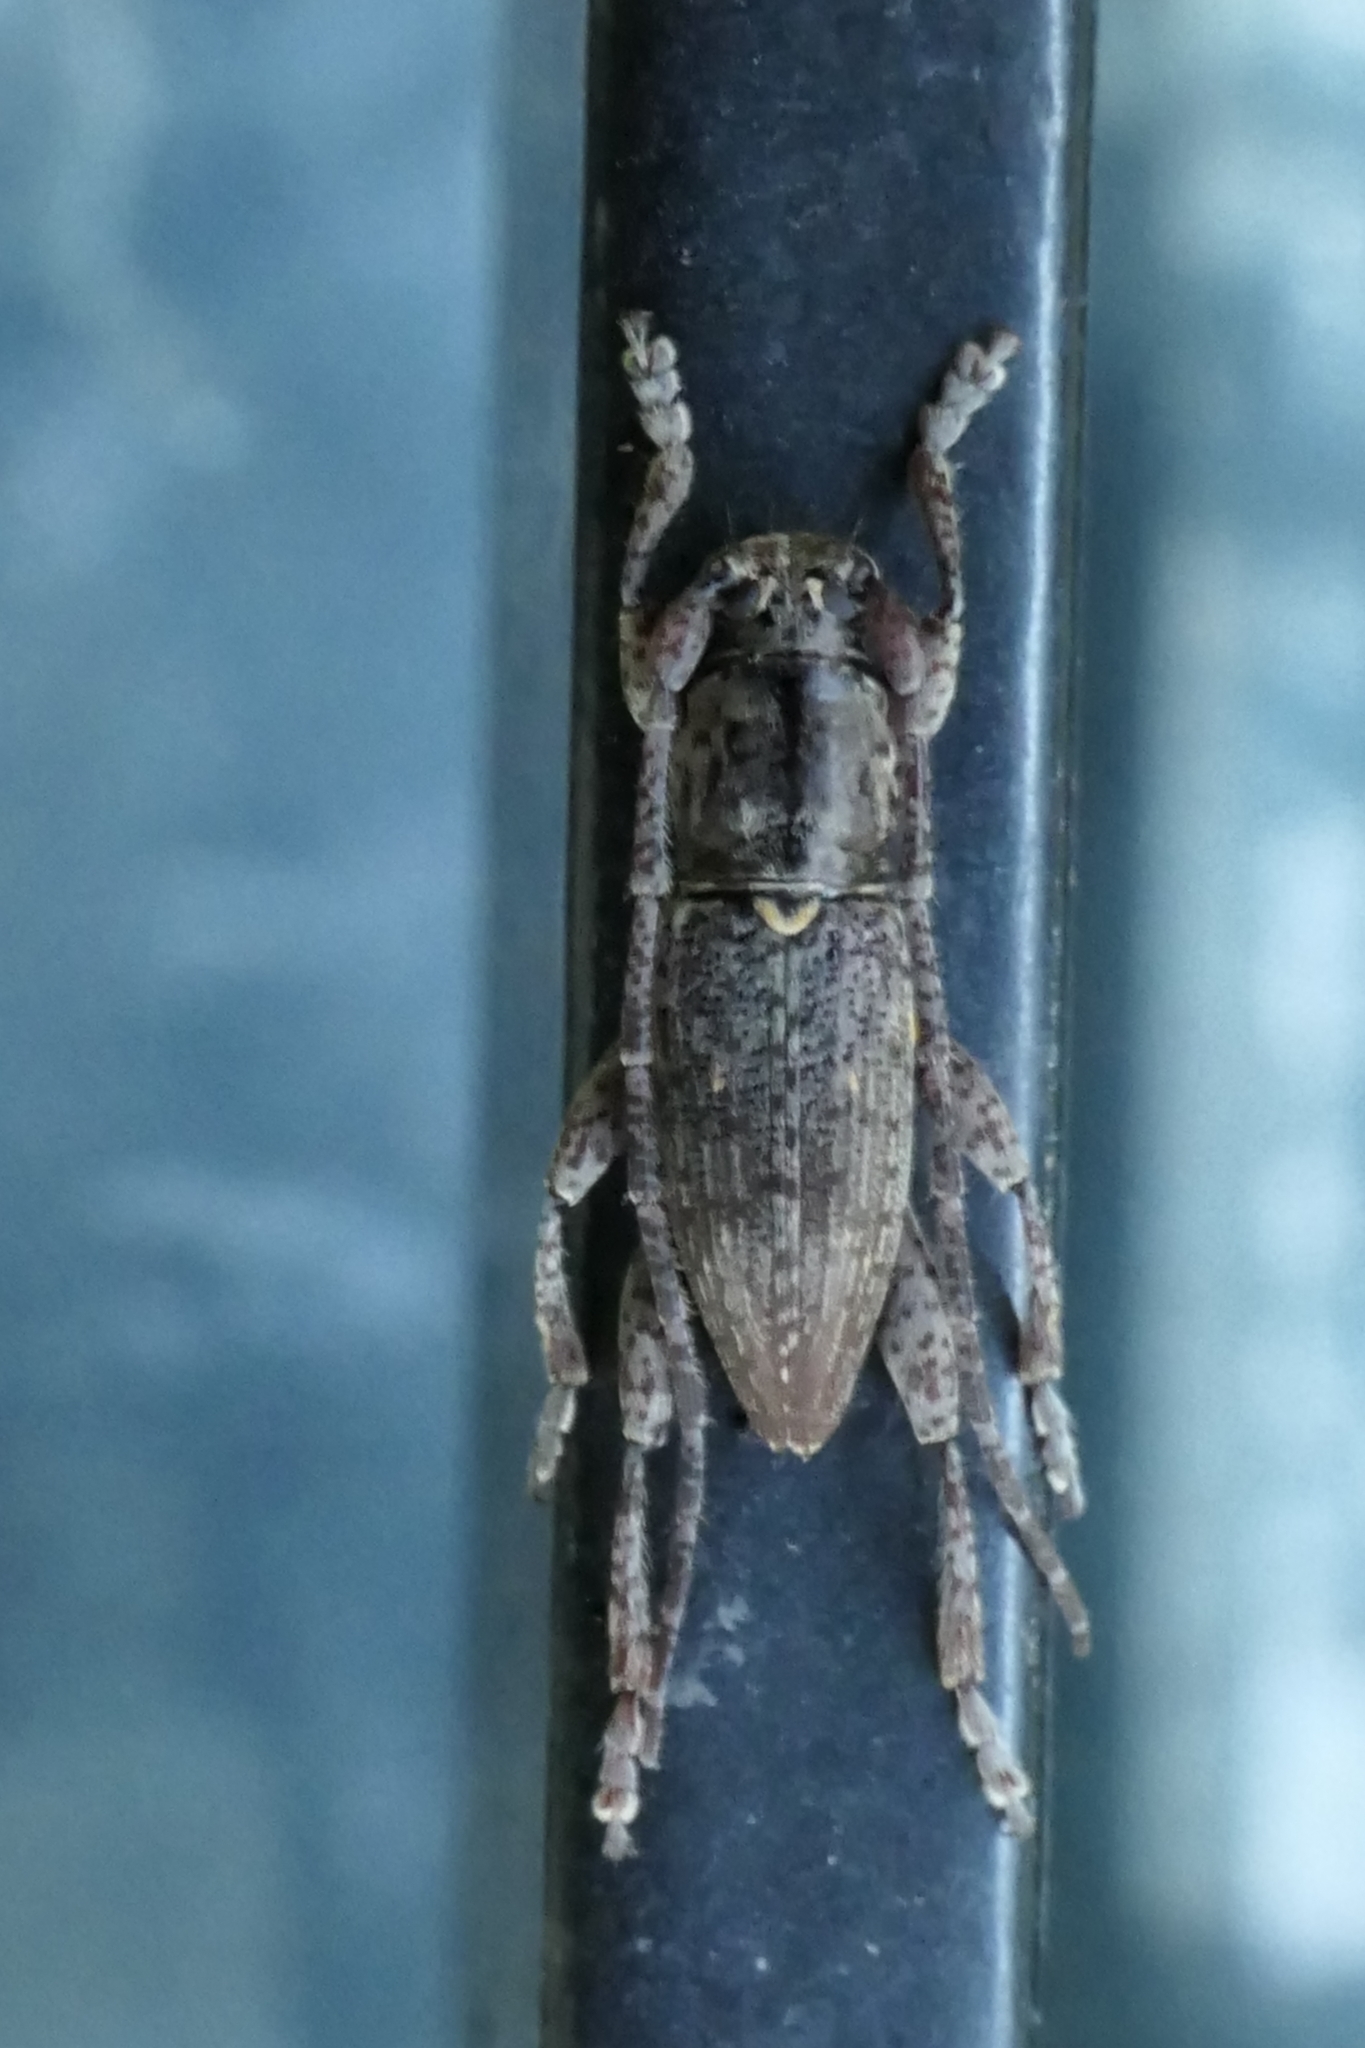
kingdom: Animalia
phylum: Arthropoda
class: Insecta
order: Coleoptera
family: Cerambycidae
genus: Xylotoles
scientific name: Xylotoles griseus
